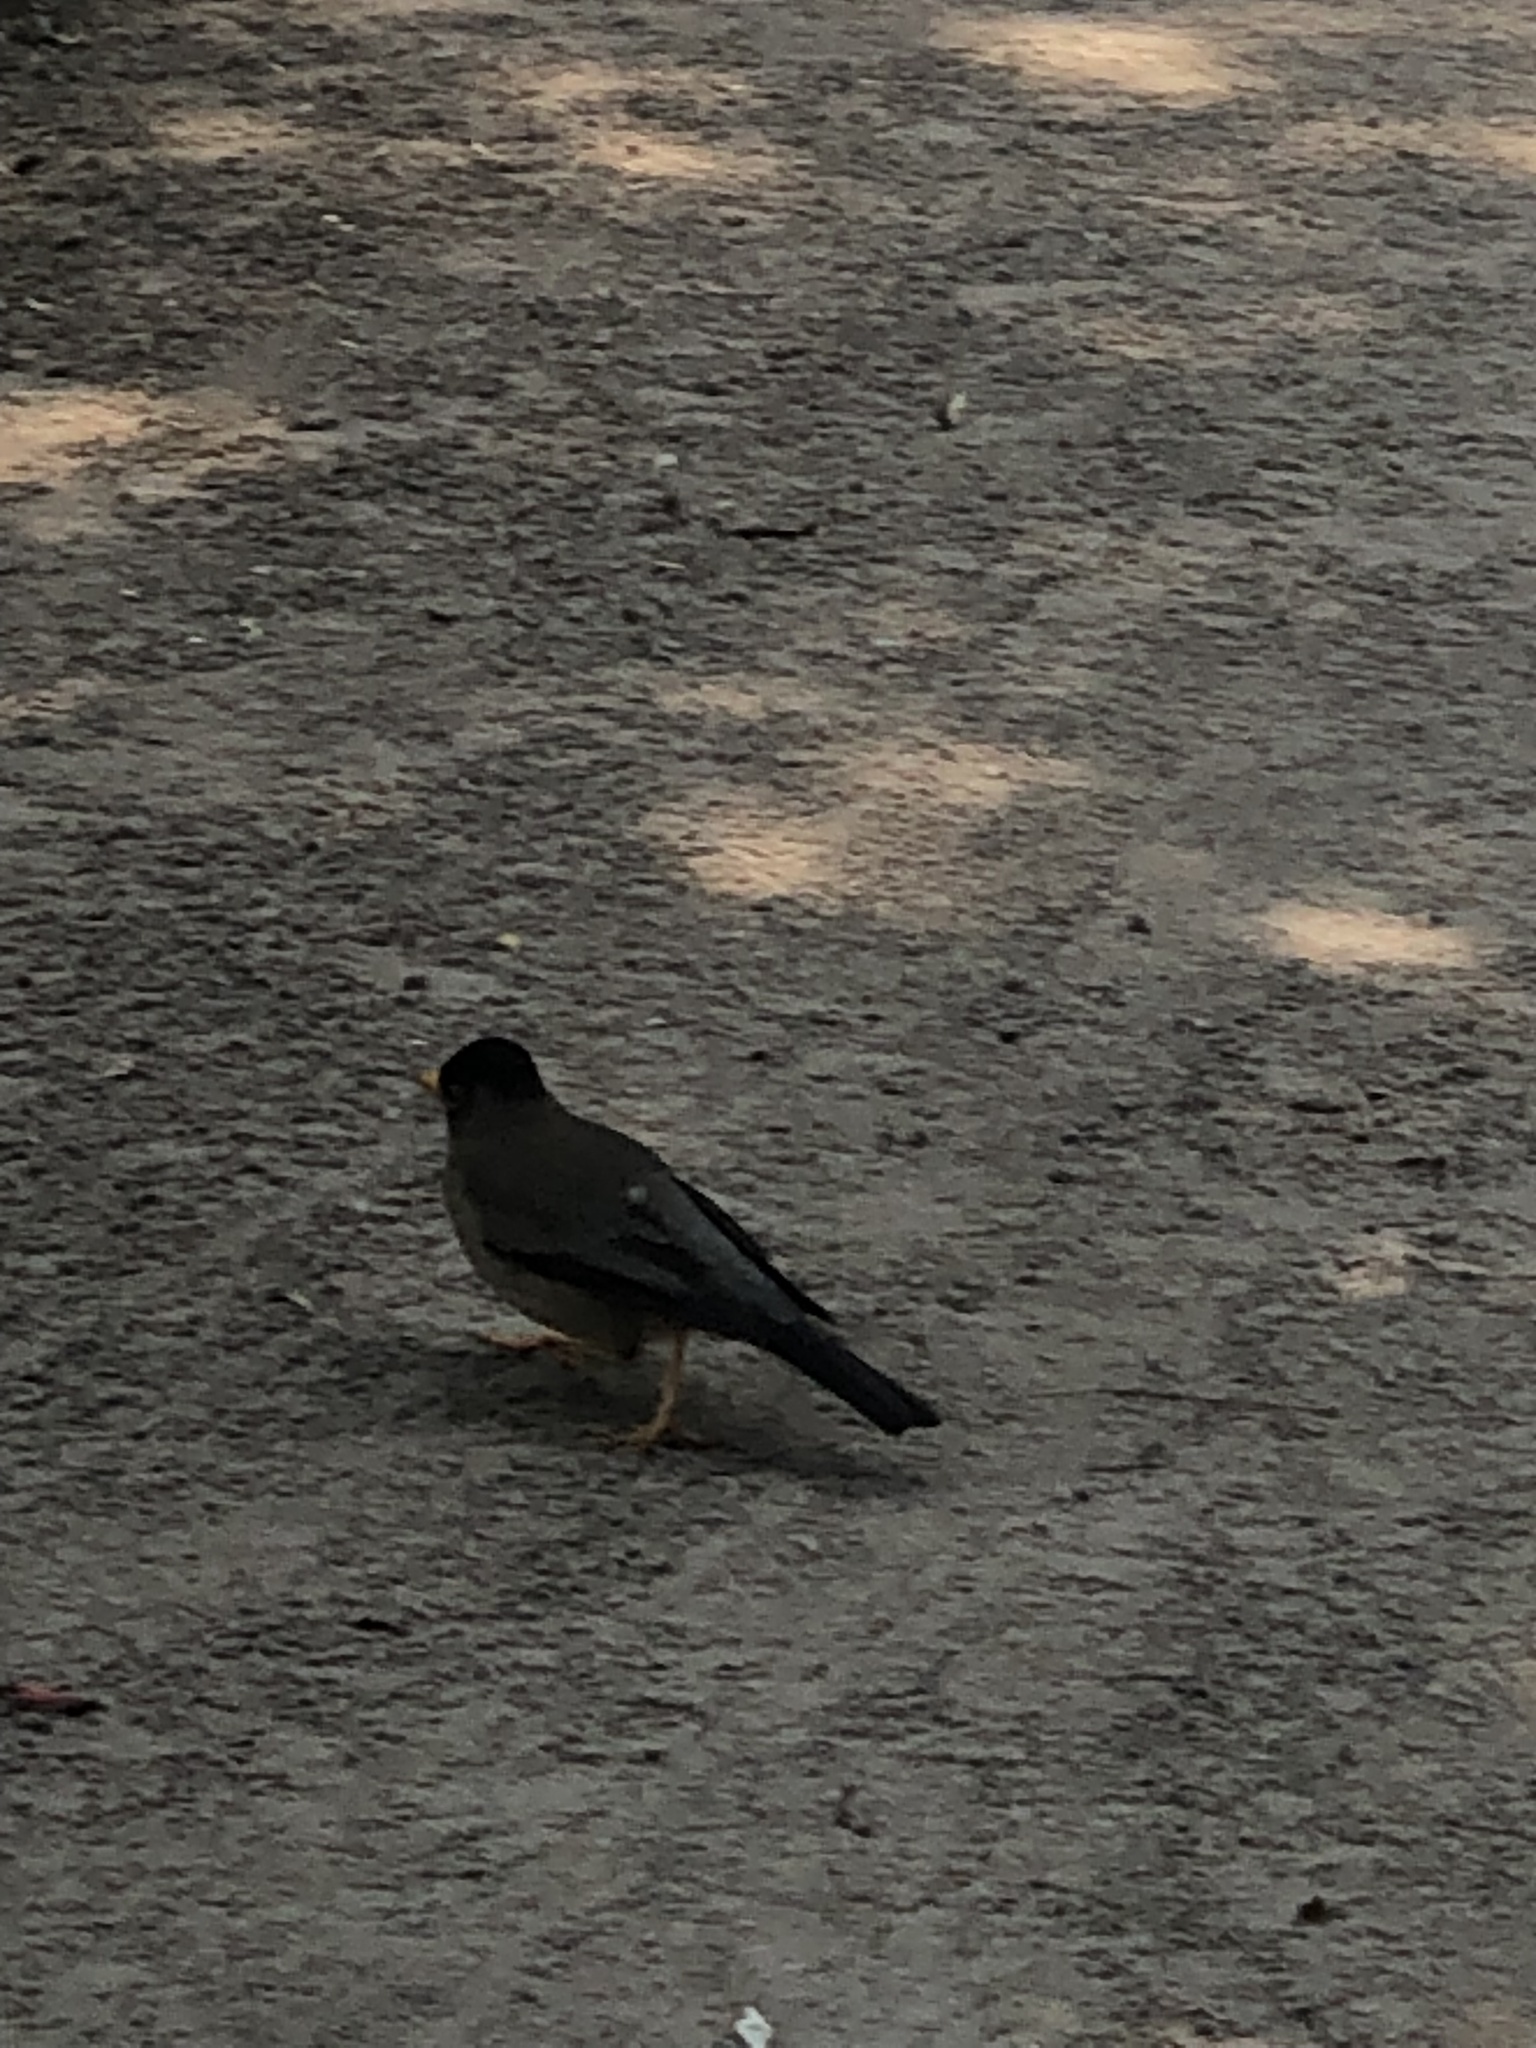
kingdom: Animalia
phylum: Chordata
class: Aves
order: Passeriformes
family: Turdidae
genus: Turdus
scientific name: Turdus falcklandii
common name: Austral thrush
